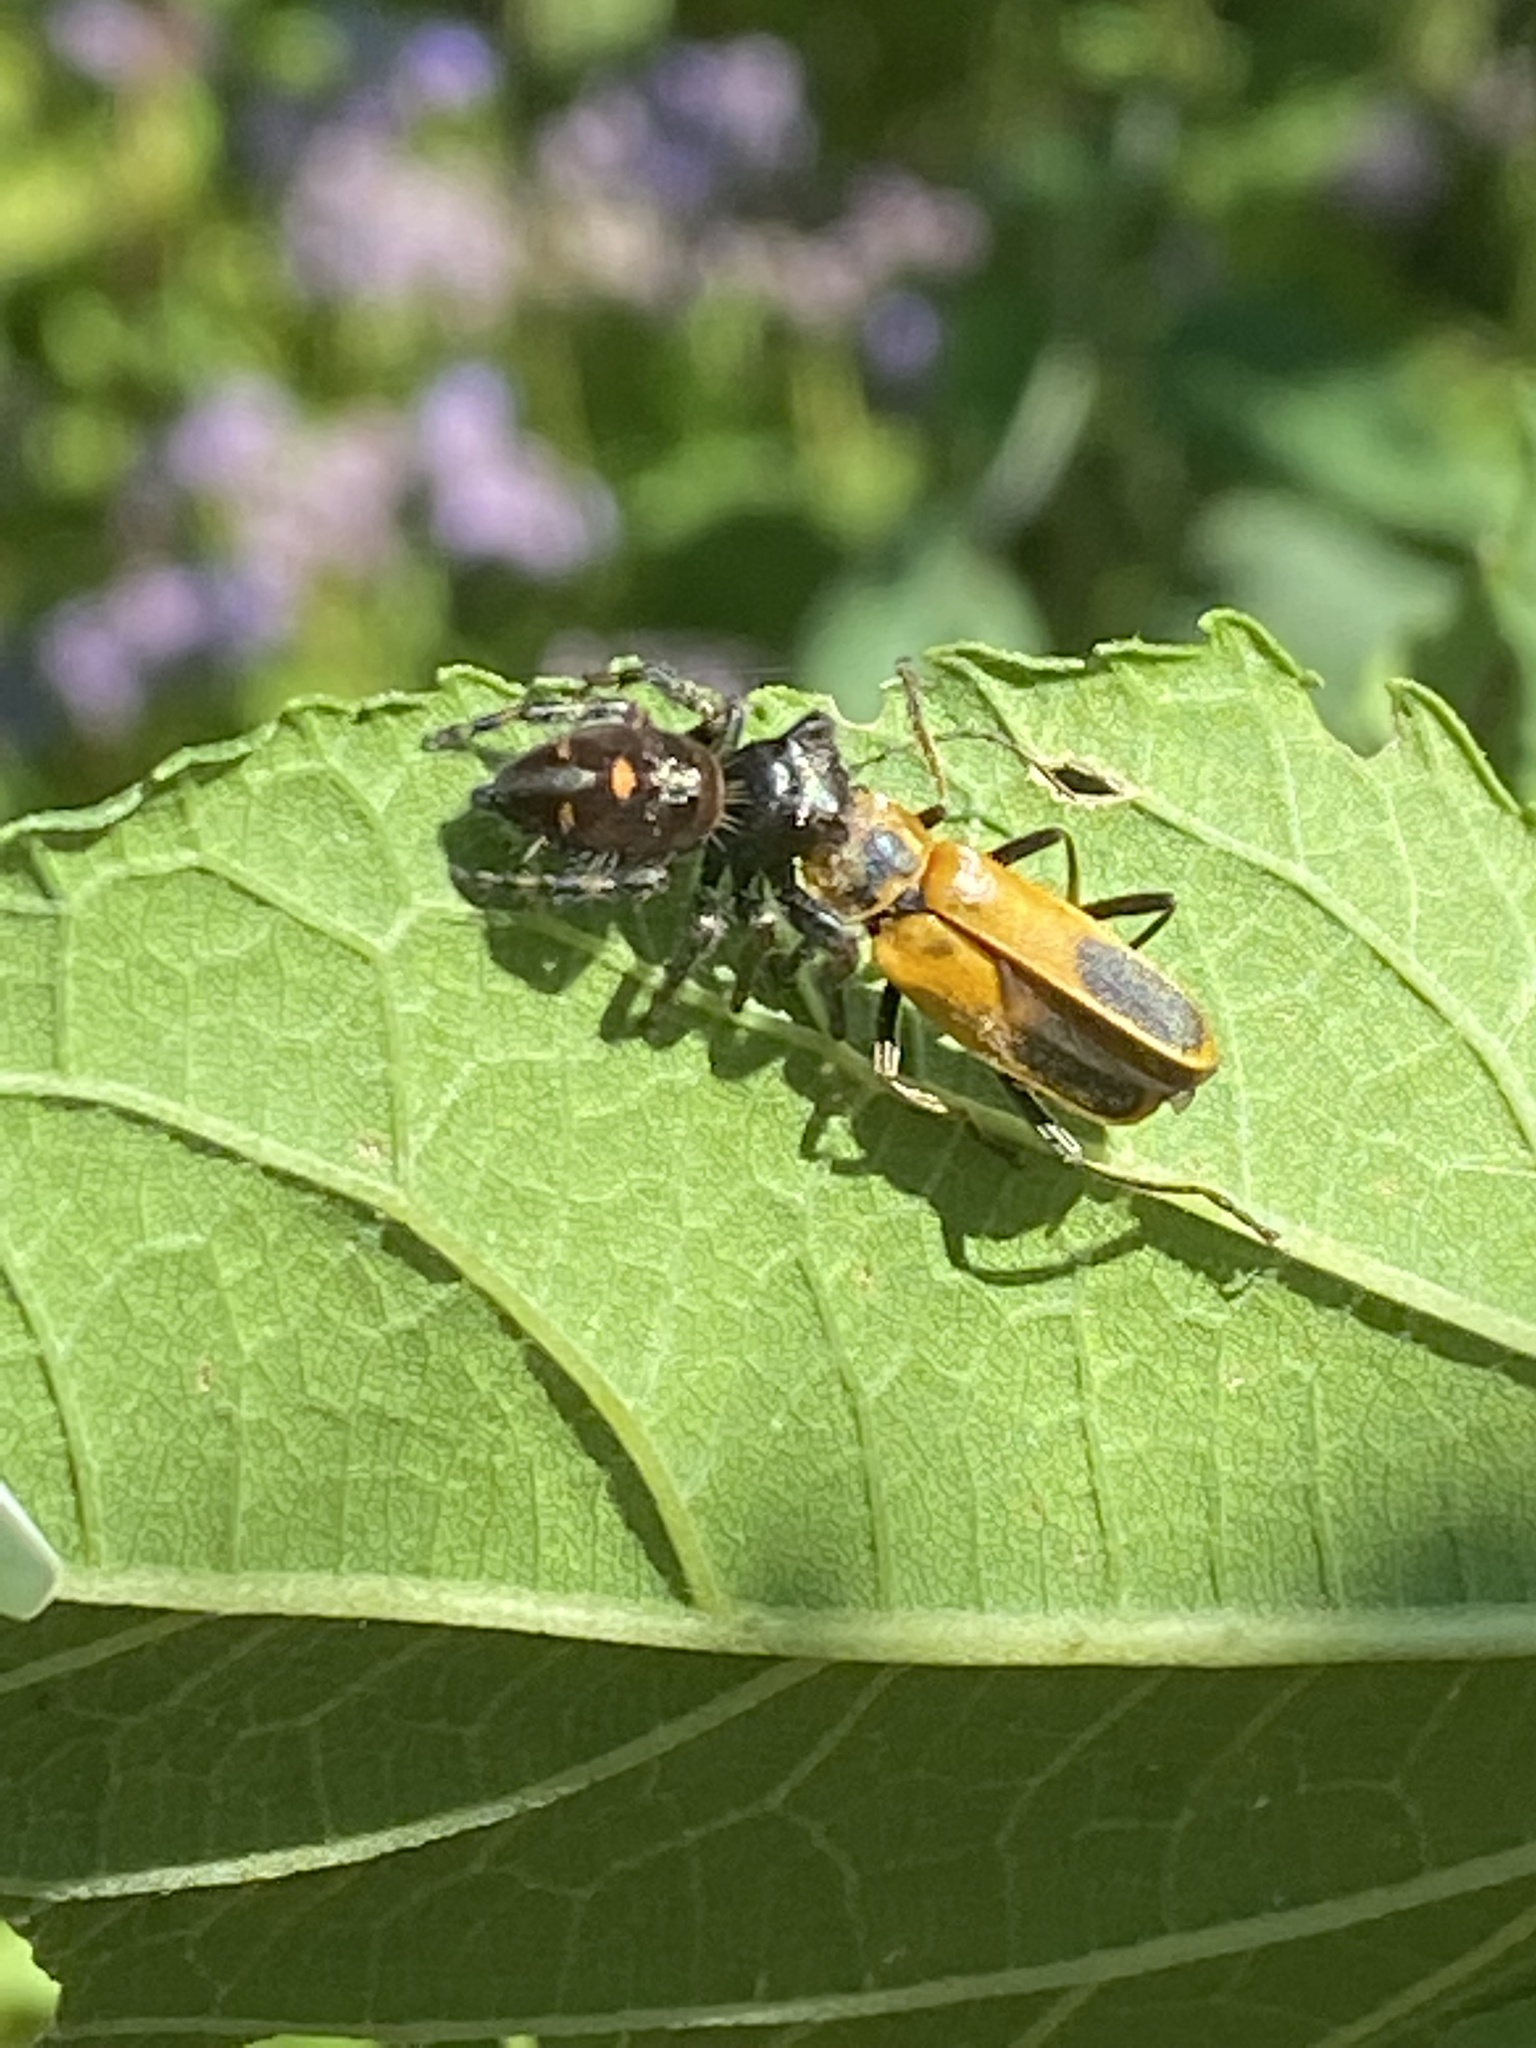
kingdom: Animalia
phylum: Arthropoda
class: Arachnida
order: Araneae
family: Salticidae
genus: Phidippus
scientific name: Phidippus audax
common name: Bold jumper
